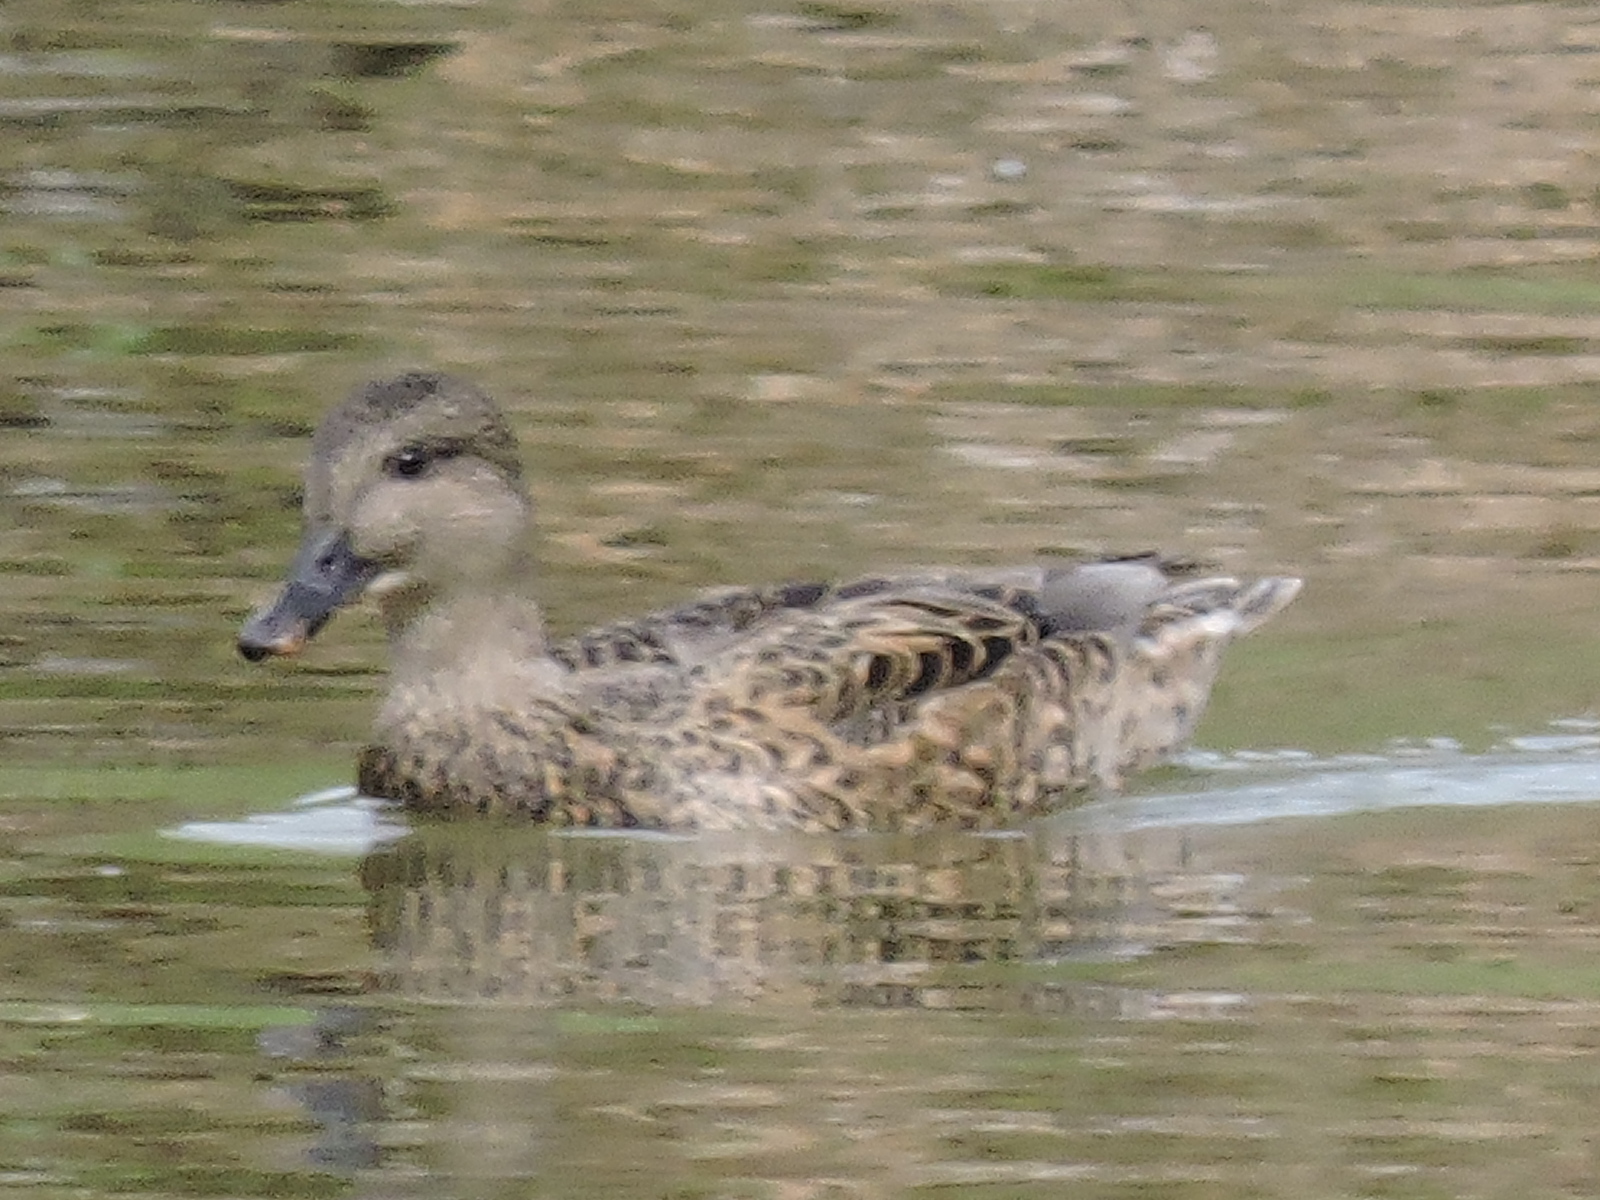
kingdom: Animalia
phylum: Chordata
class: Aves
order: Anseriformes
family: Anatidae
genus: Mareca
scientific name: Mareca strepera
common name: Gadwall
